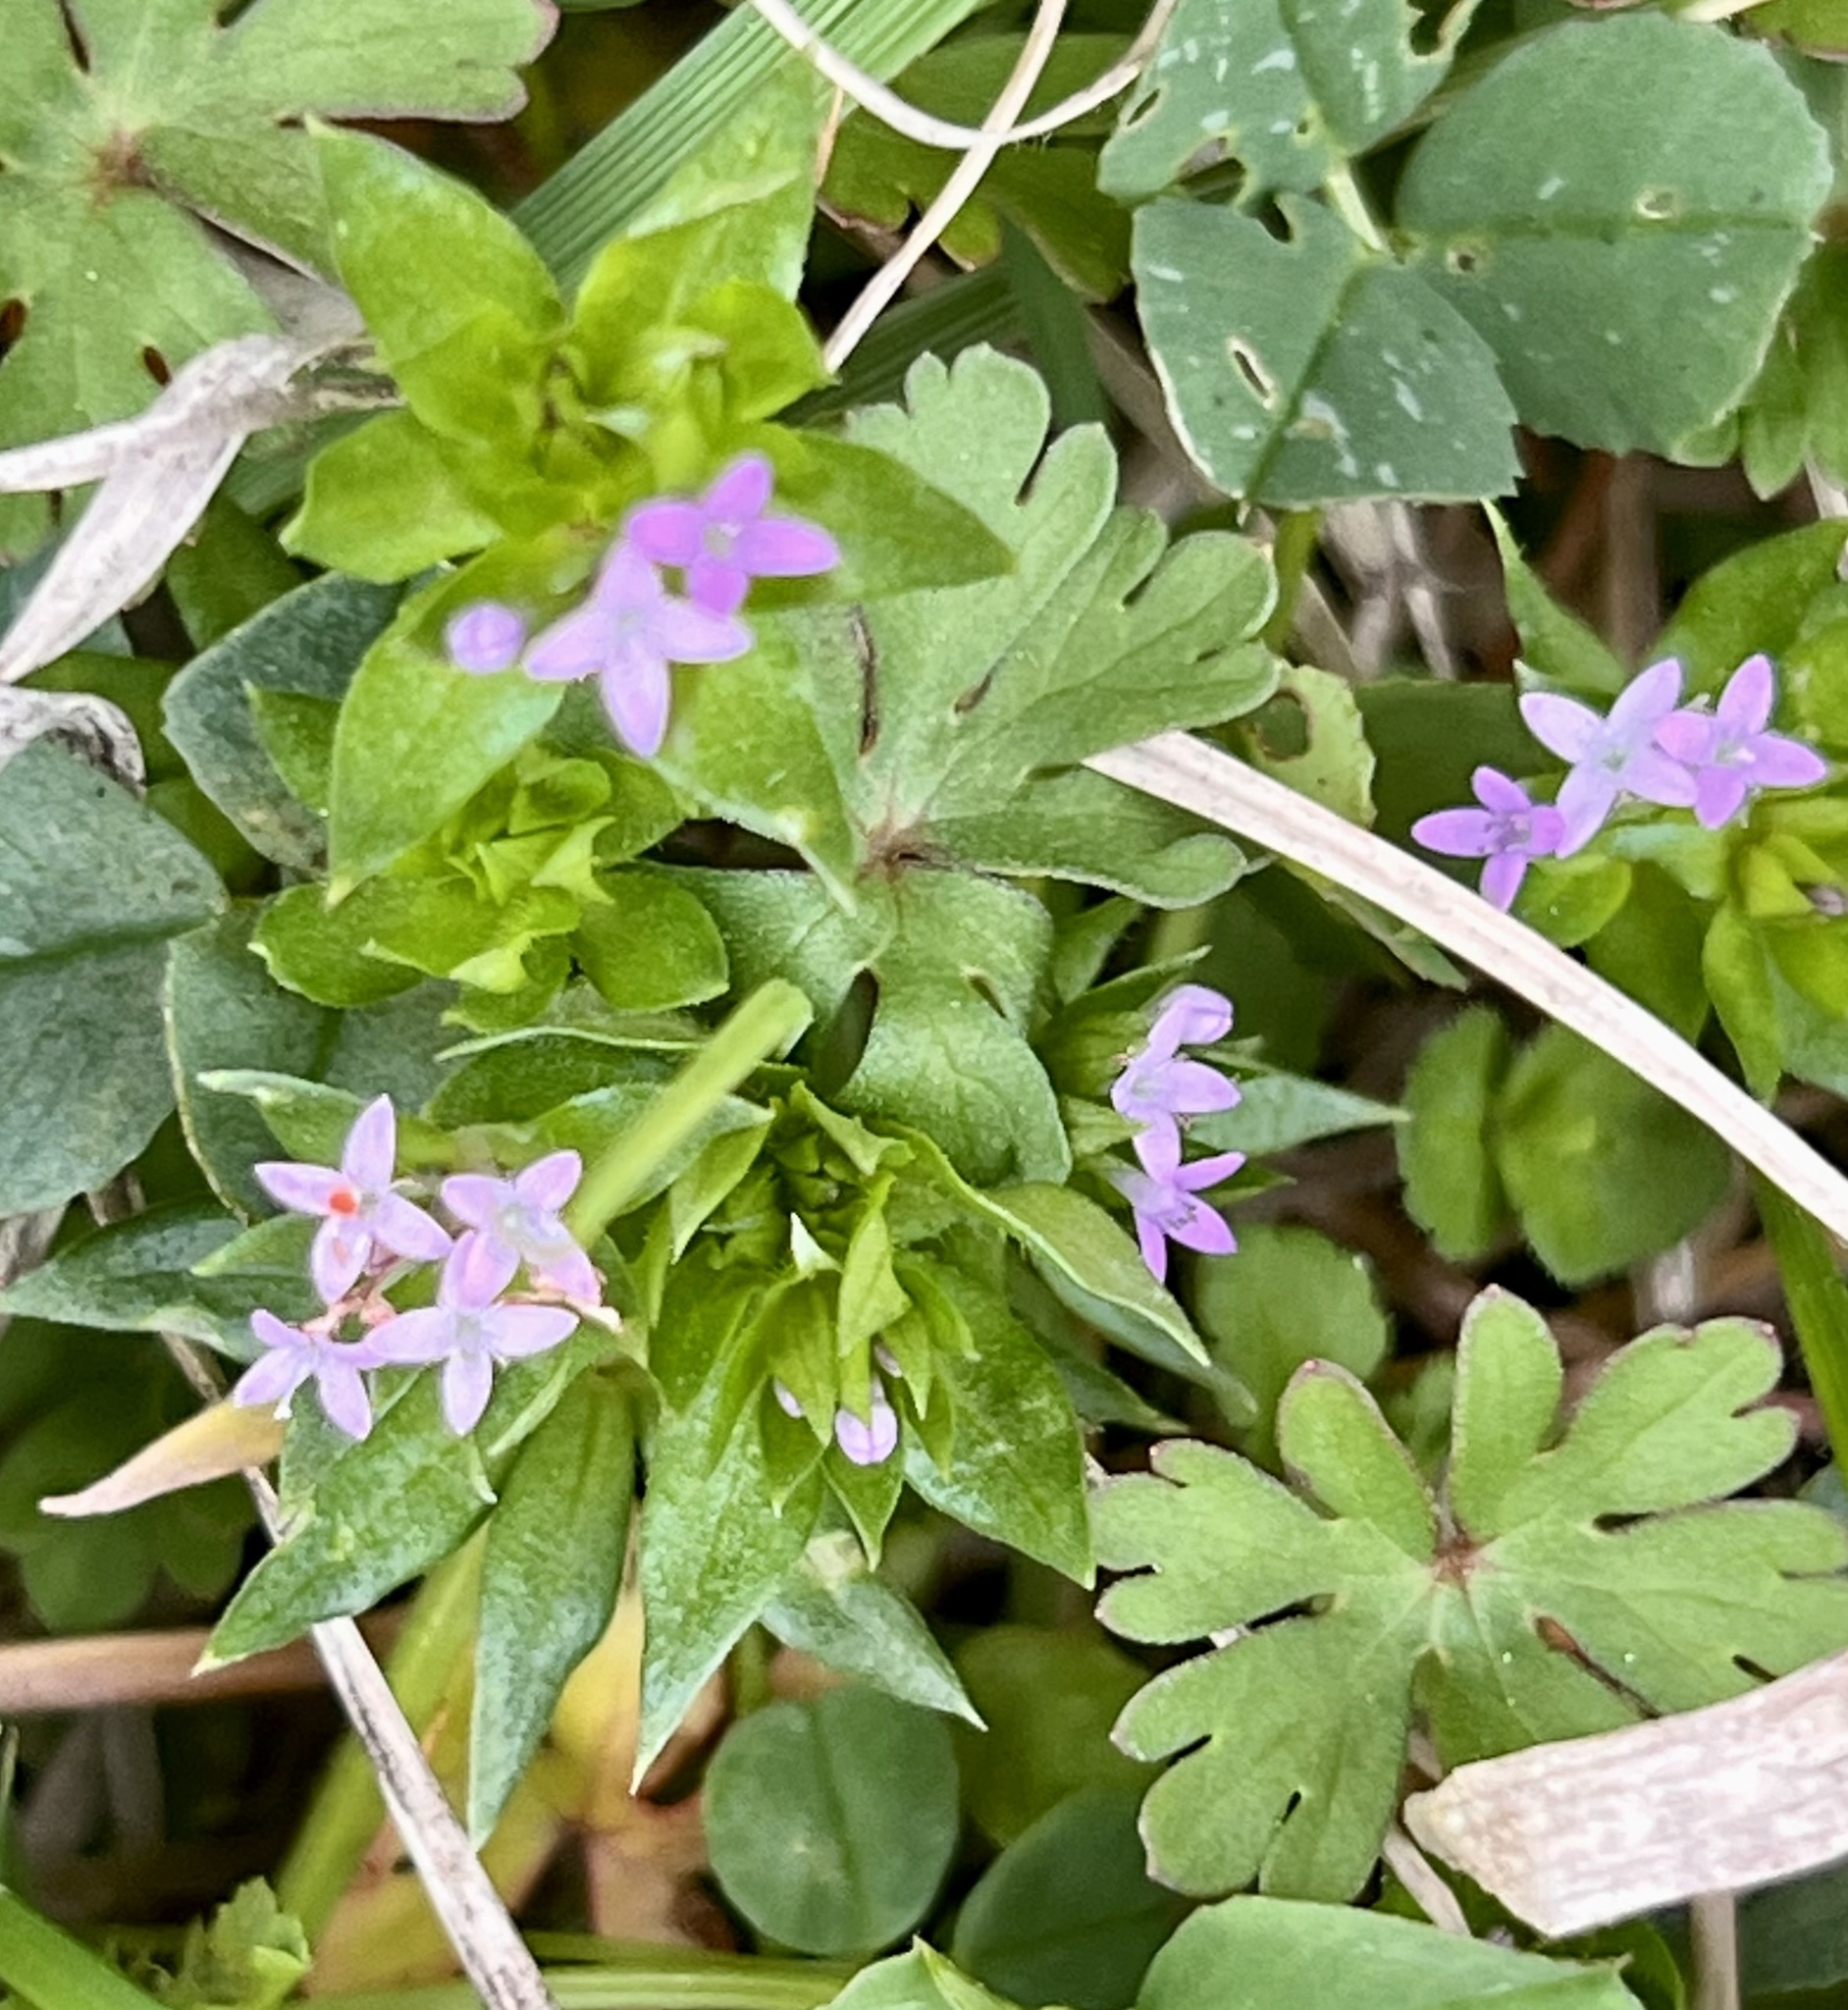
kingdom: Plantae
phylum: Tracheophyta
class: Magnoliopsida
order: Gentianales
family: Rubiaceae
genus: Sherardia
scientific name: Sherardia arvensis
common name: Field madder
